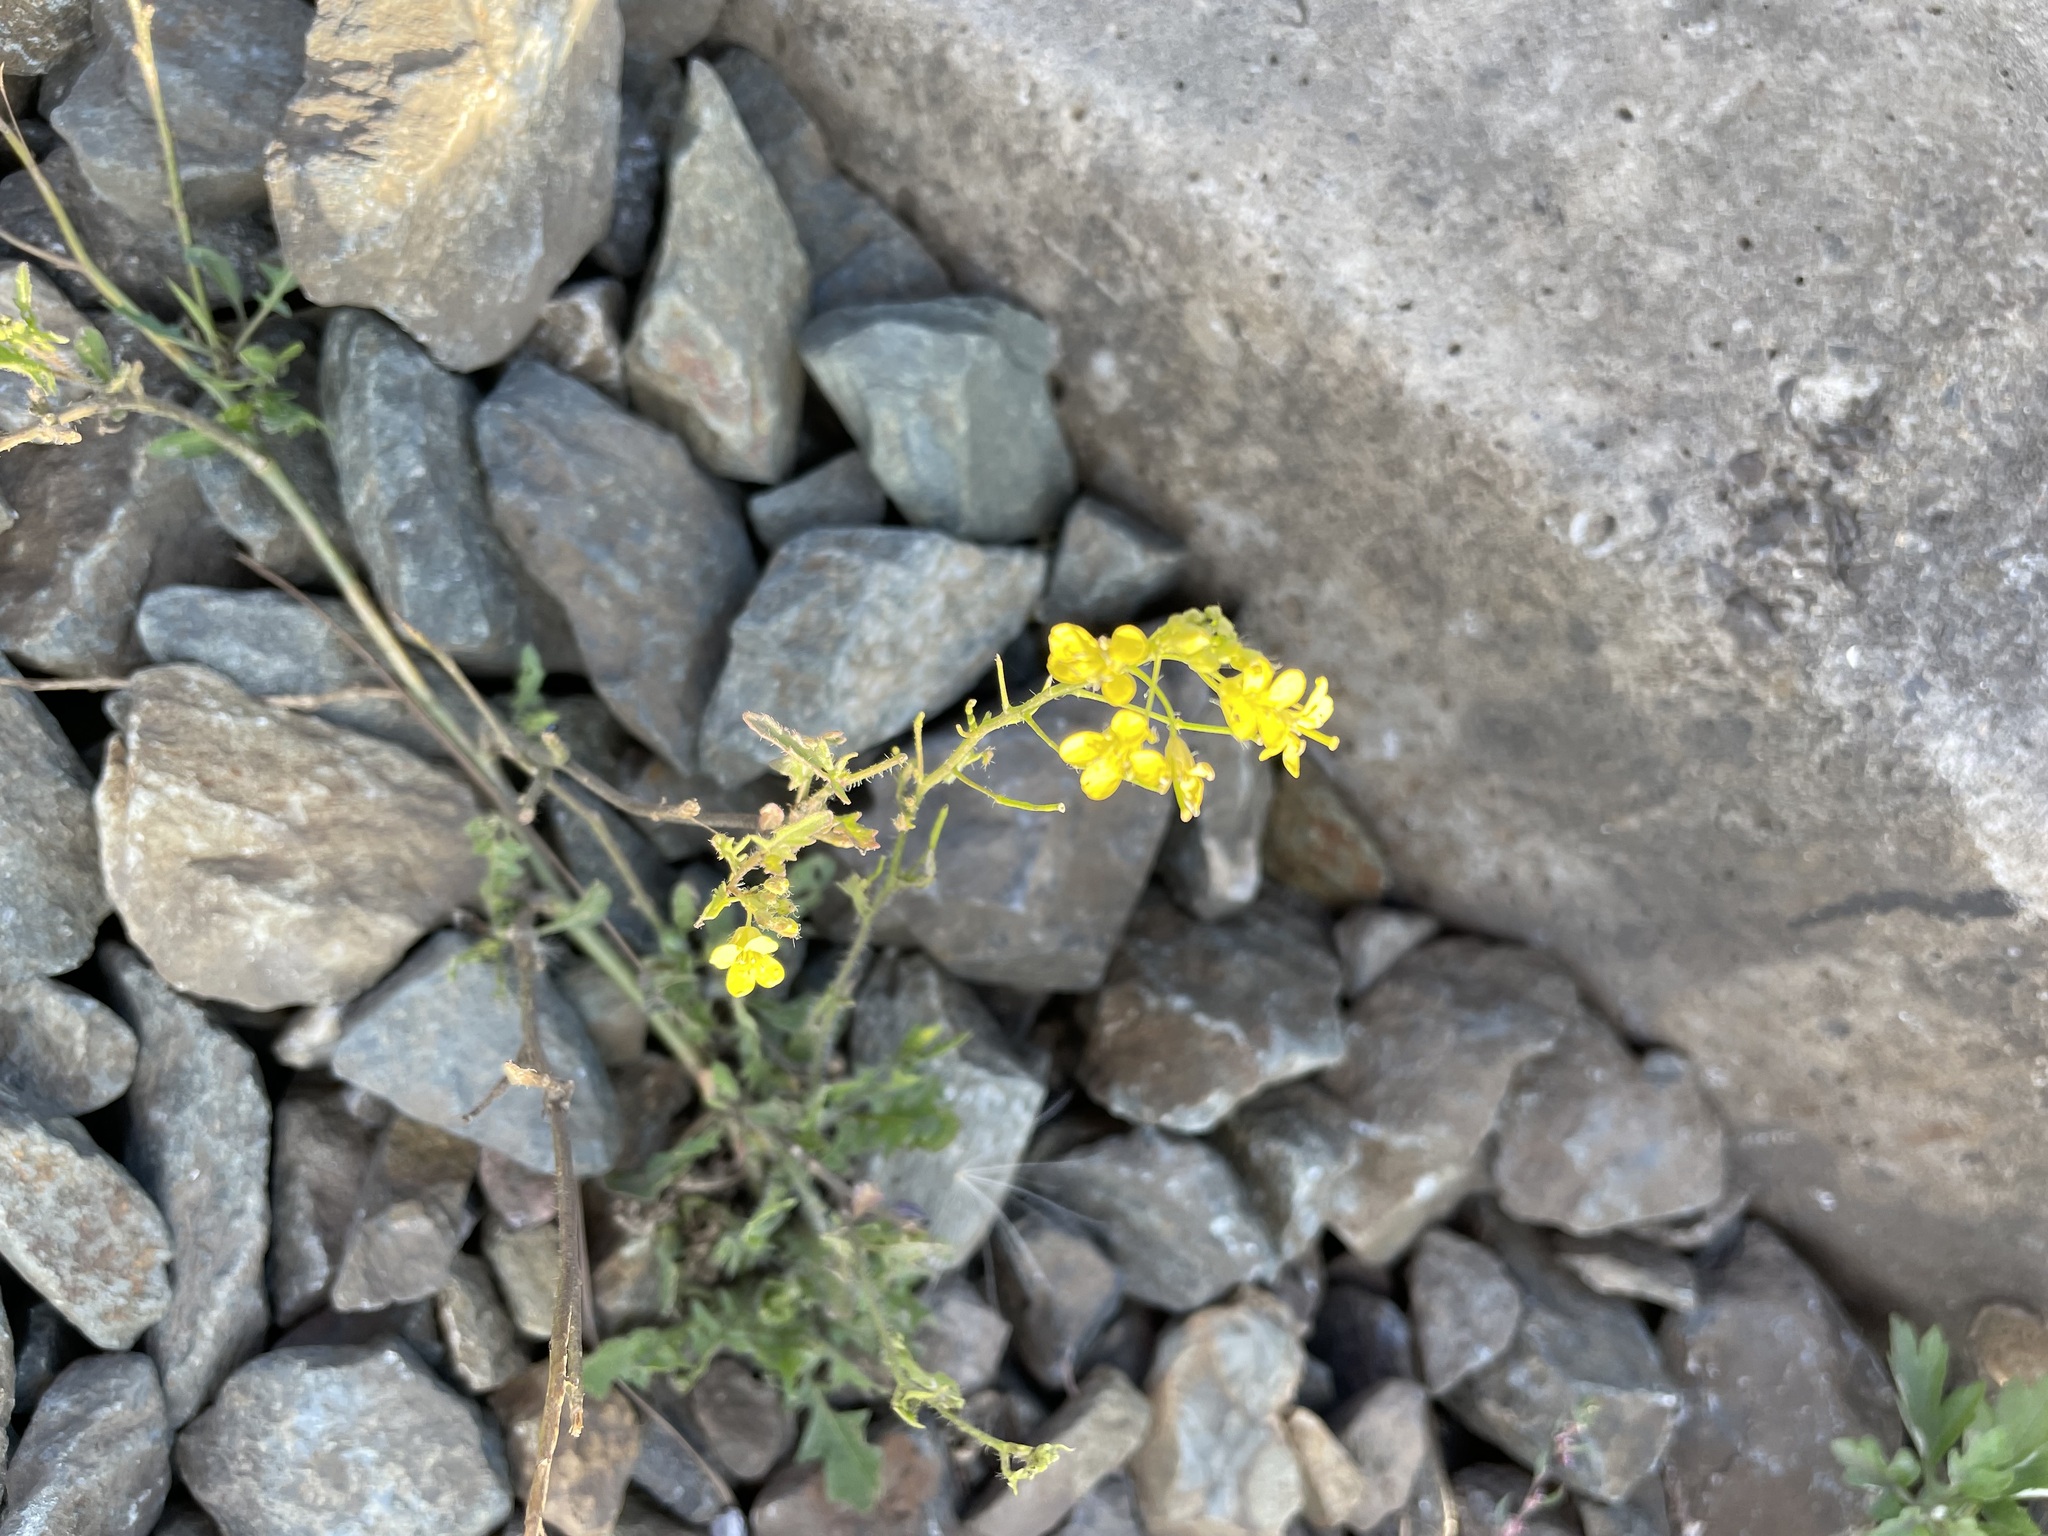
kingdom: Plantae
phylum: Tracheophyta
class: Magnoliopsida
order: Brassicales
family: Brassicaceae
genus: Sisymbrium
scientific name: Sisymbrium loeselii
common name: False london-rocket
